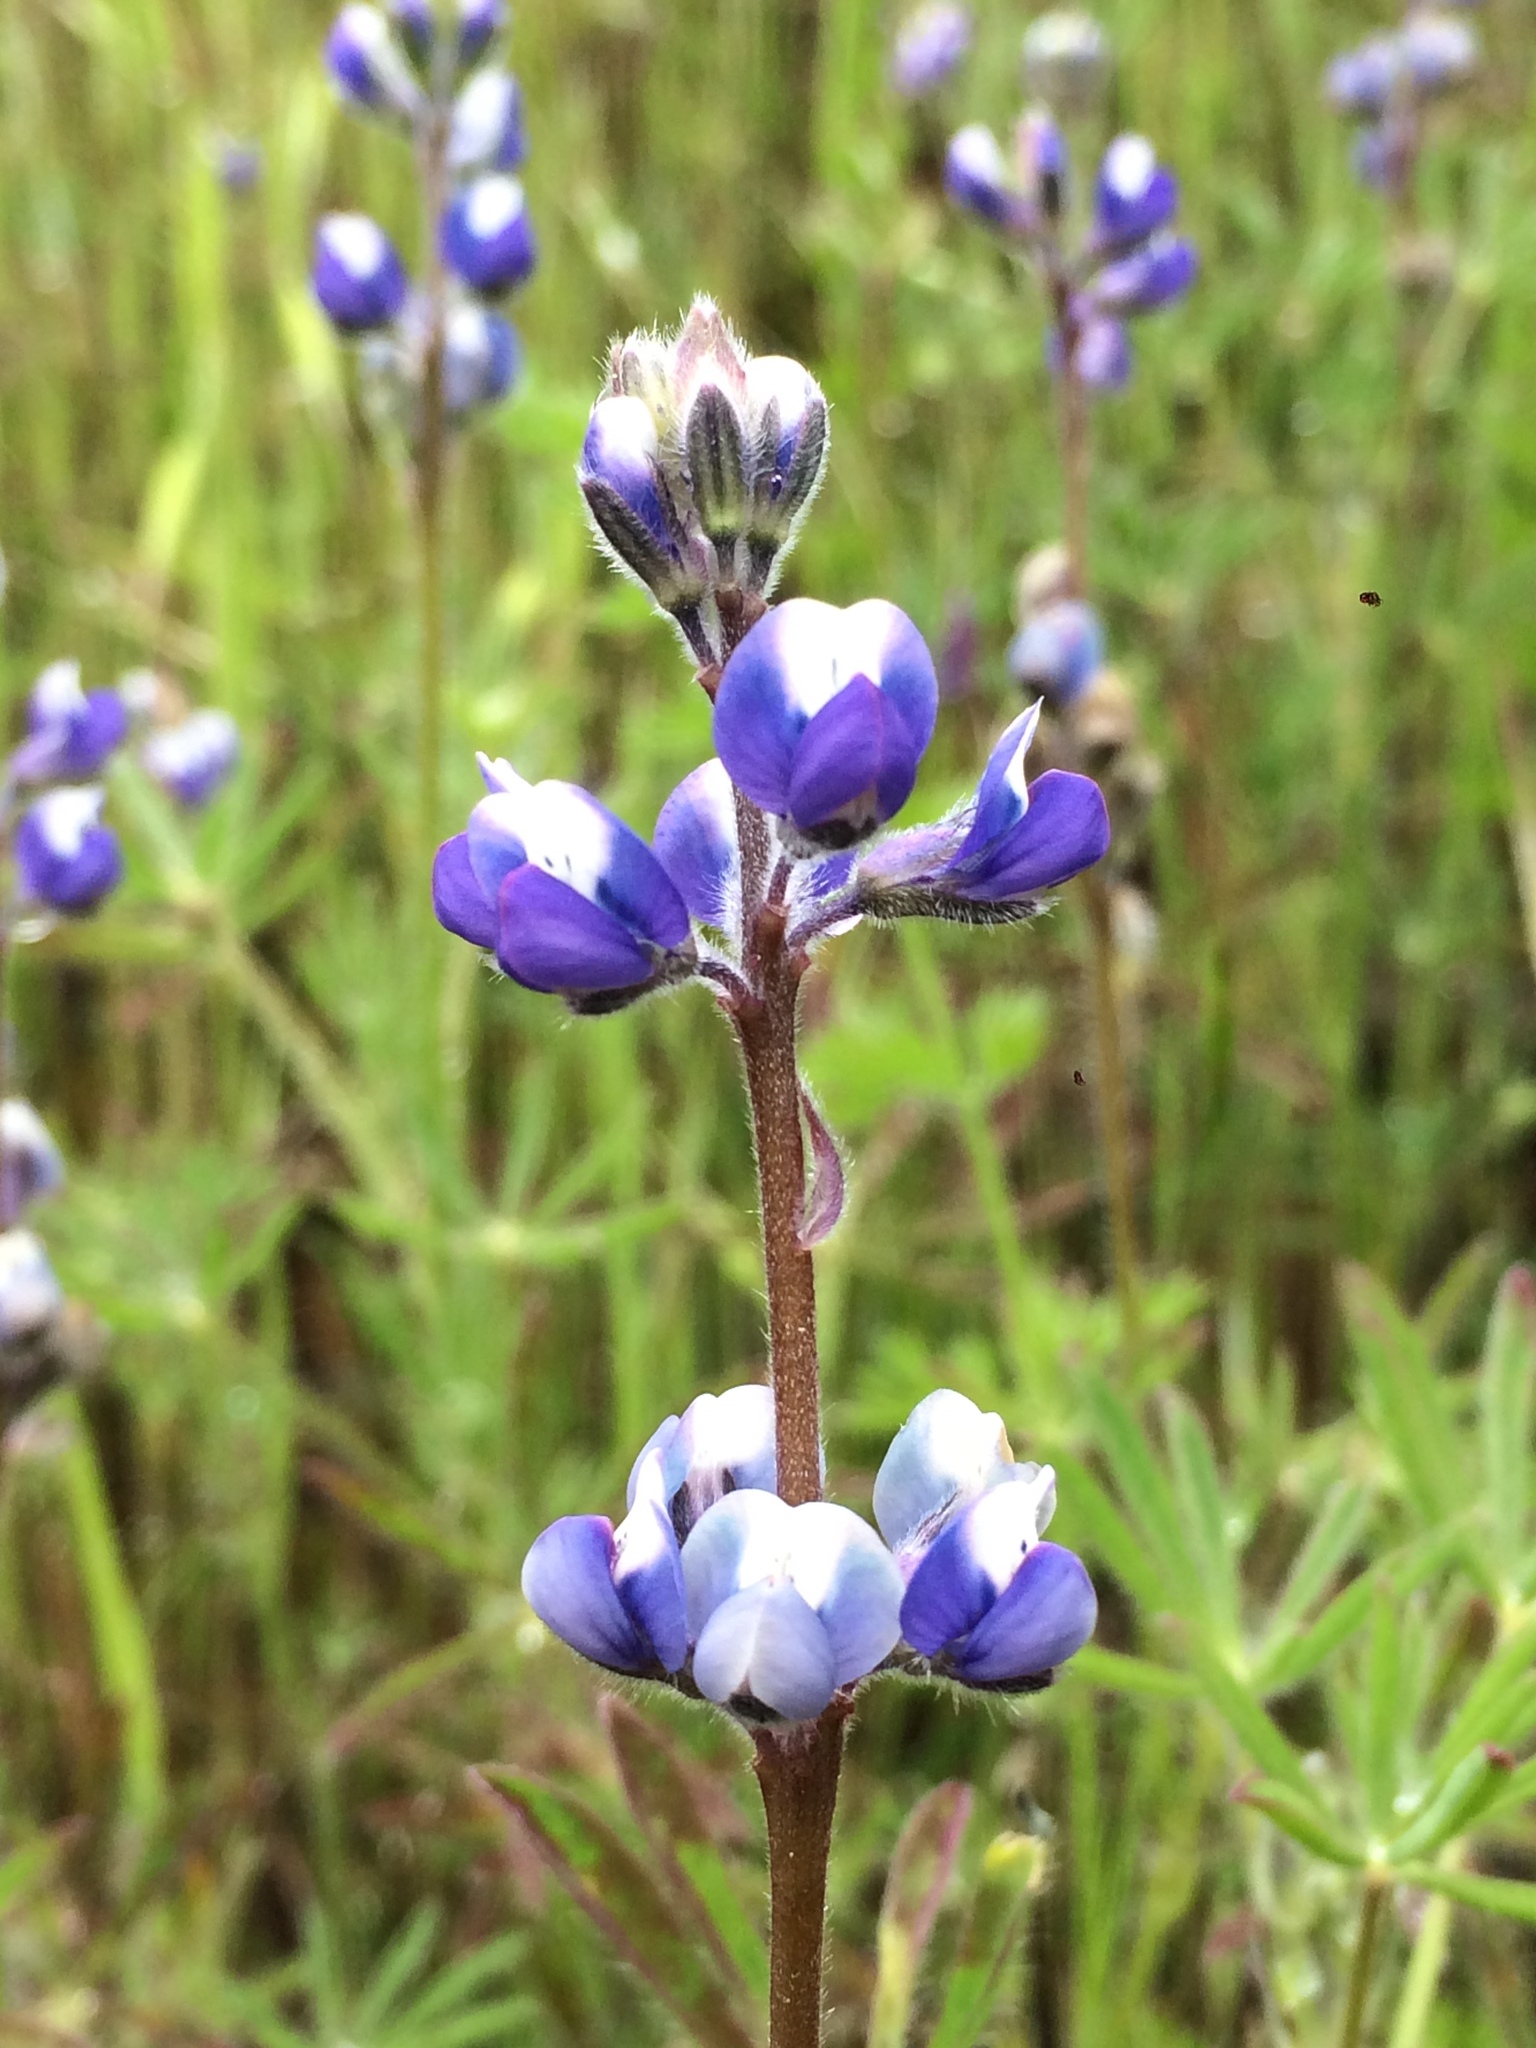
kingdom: Plantae
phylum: Tracheophyta
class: Magnoliopsida
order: Fabales
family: Fabaceae
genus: Lupinus
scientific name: Lupinus bicolor
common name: Miniature lupine
